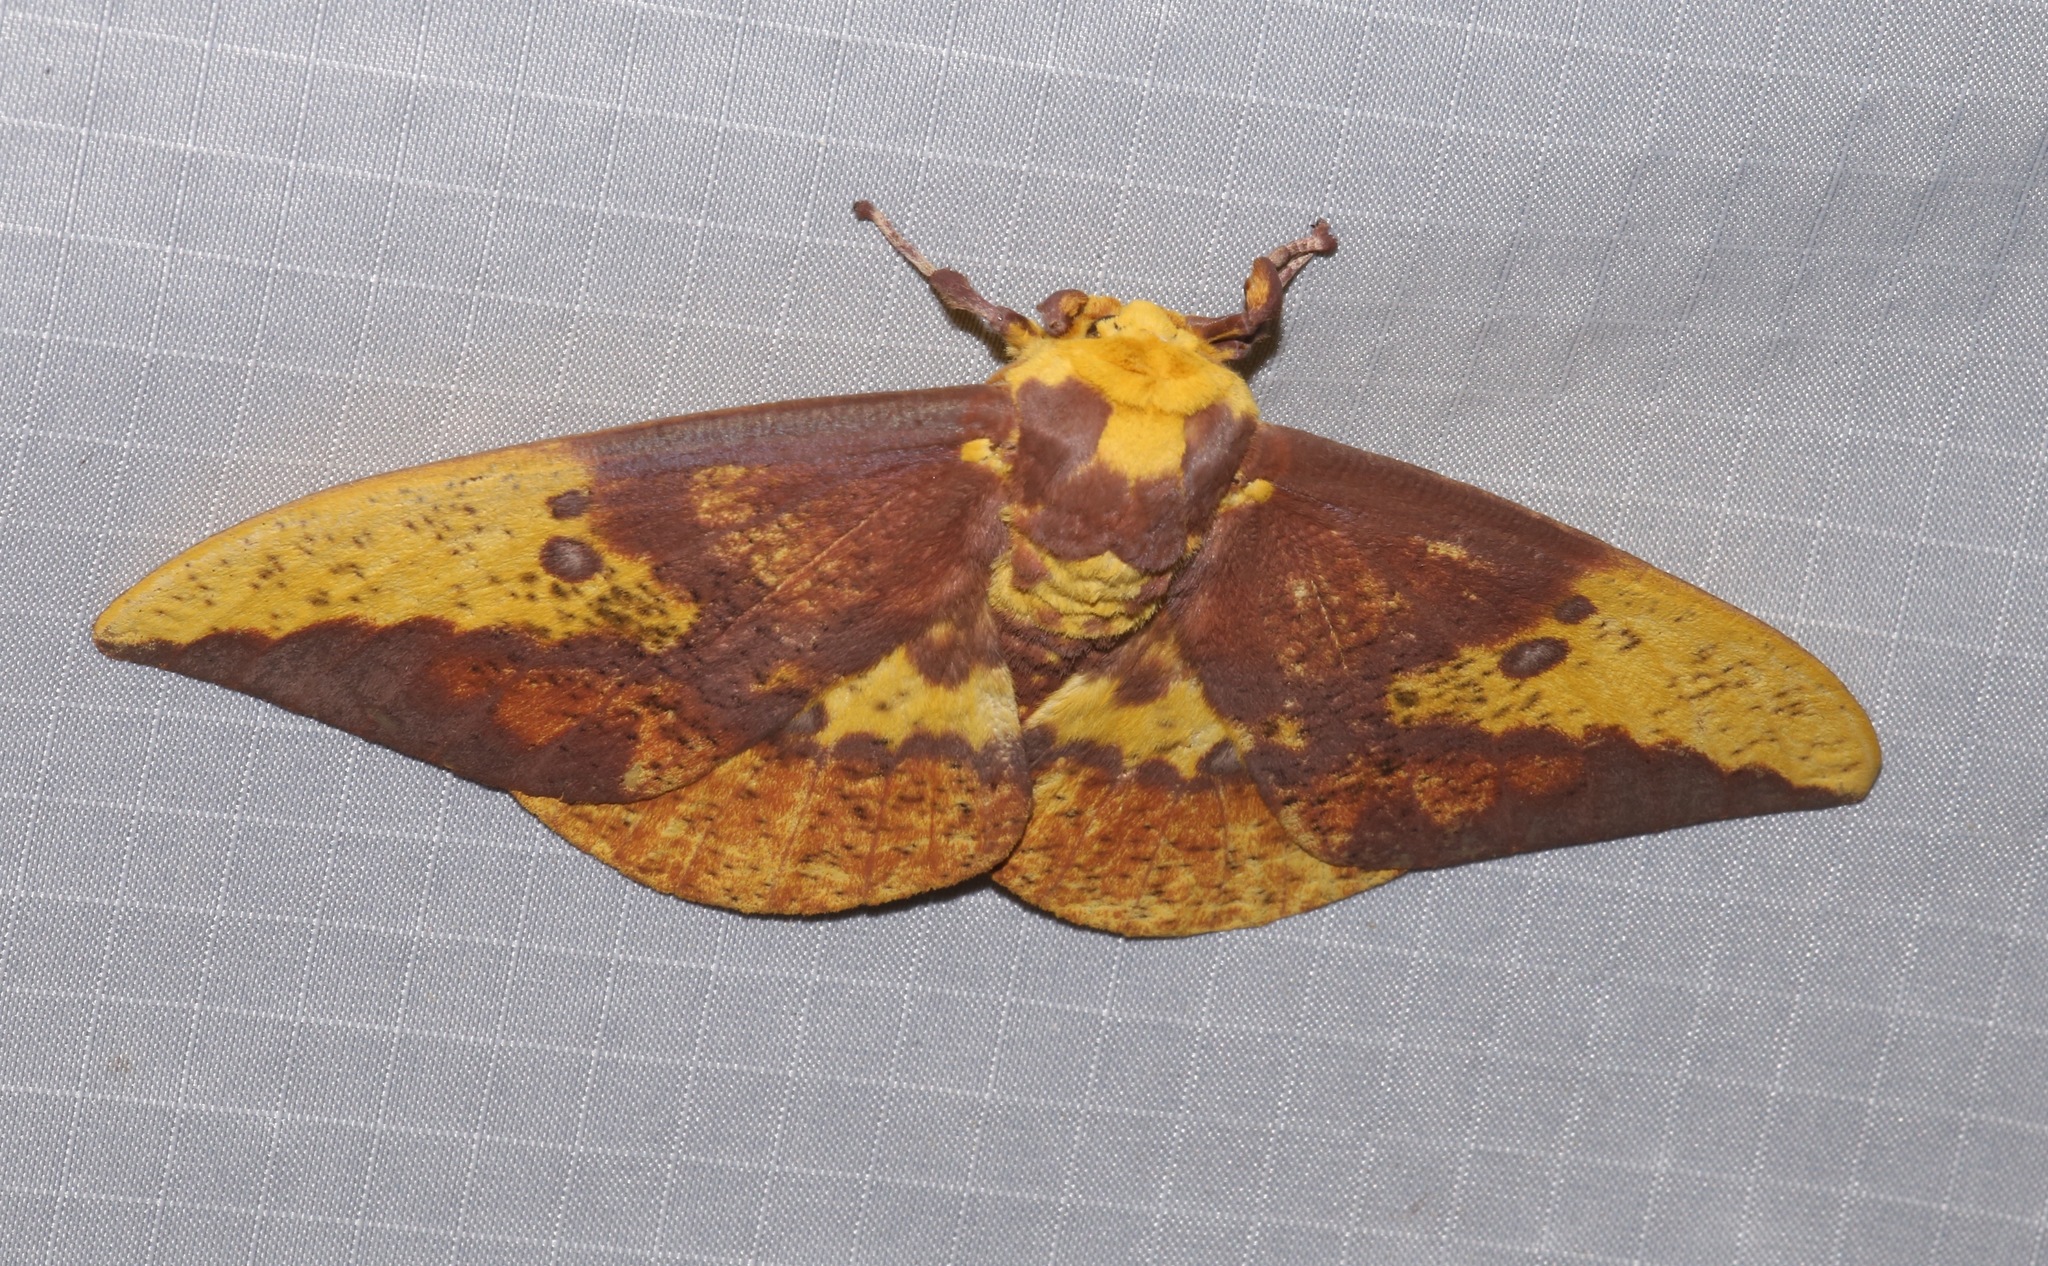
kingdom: Animalia
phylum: Arthropoda
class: Insecta
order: Lepidoptera
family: Saturniidae
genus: Eacles
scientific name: Eacles imperialis
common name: Imperial moth
